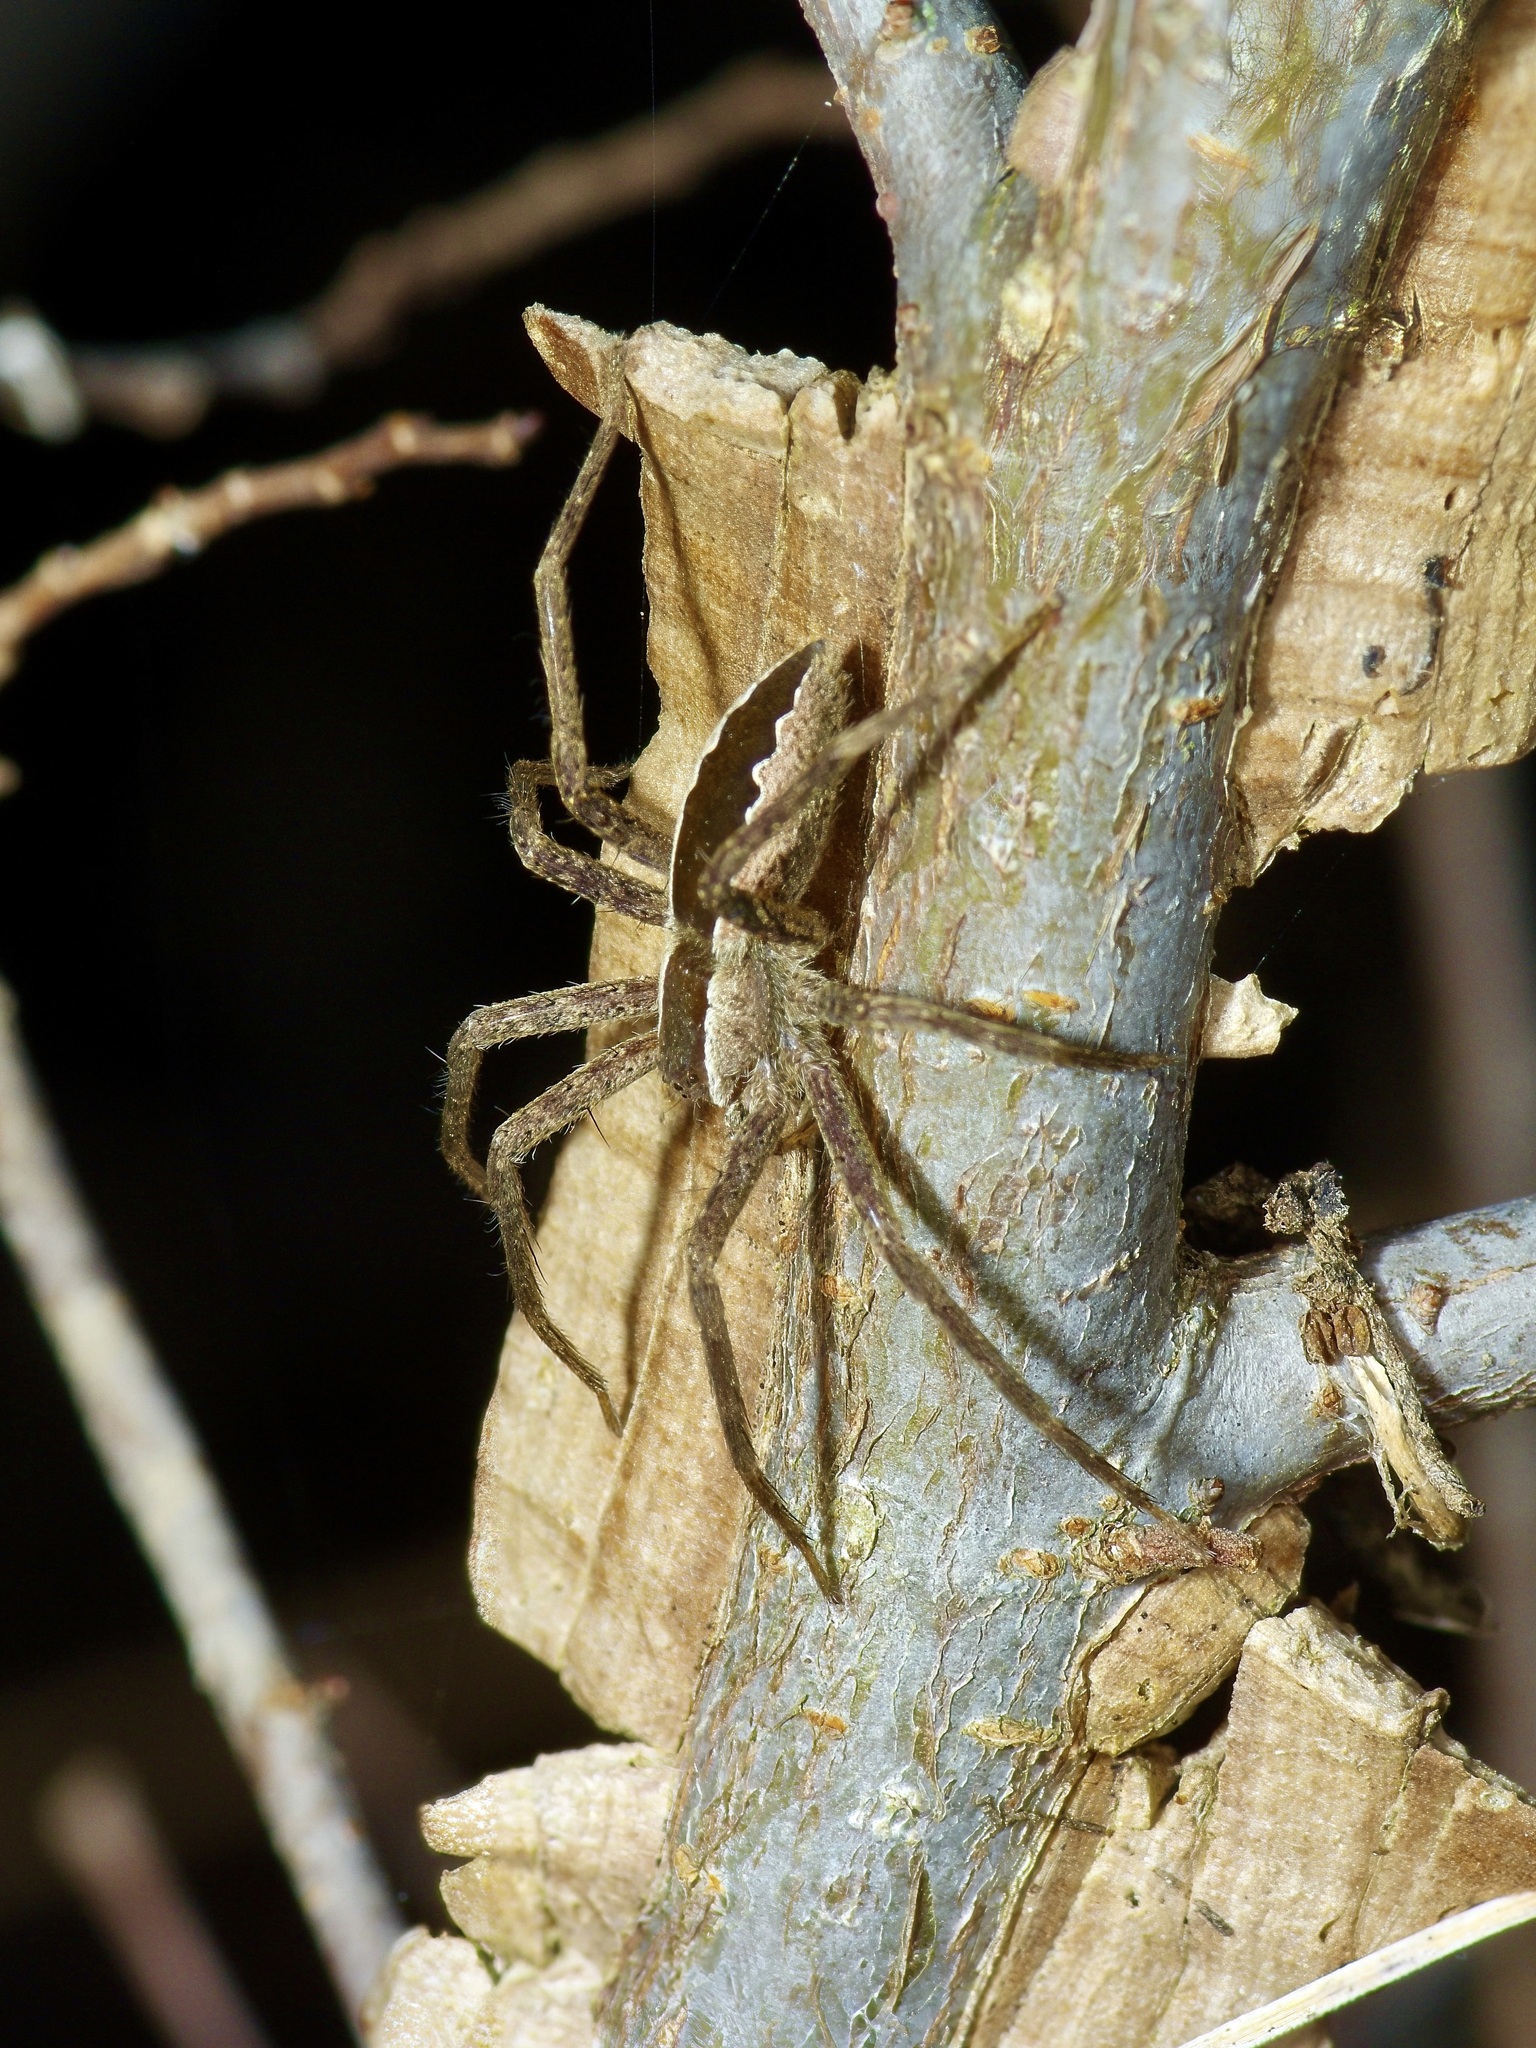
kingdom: Animalia
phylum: Arthropoda
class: Arachnida
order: Araneae
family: Pisauridae
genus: Pisaurina
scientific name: Pisaurina mira
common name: American nursery web spider
